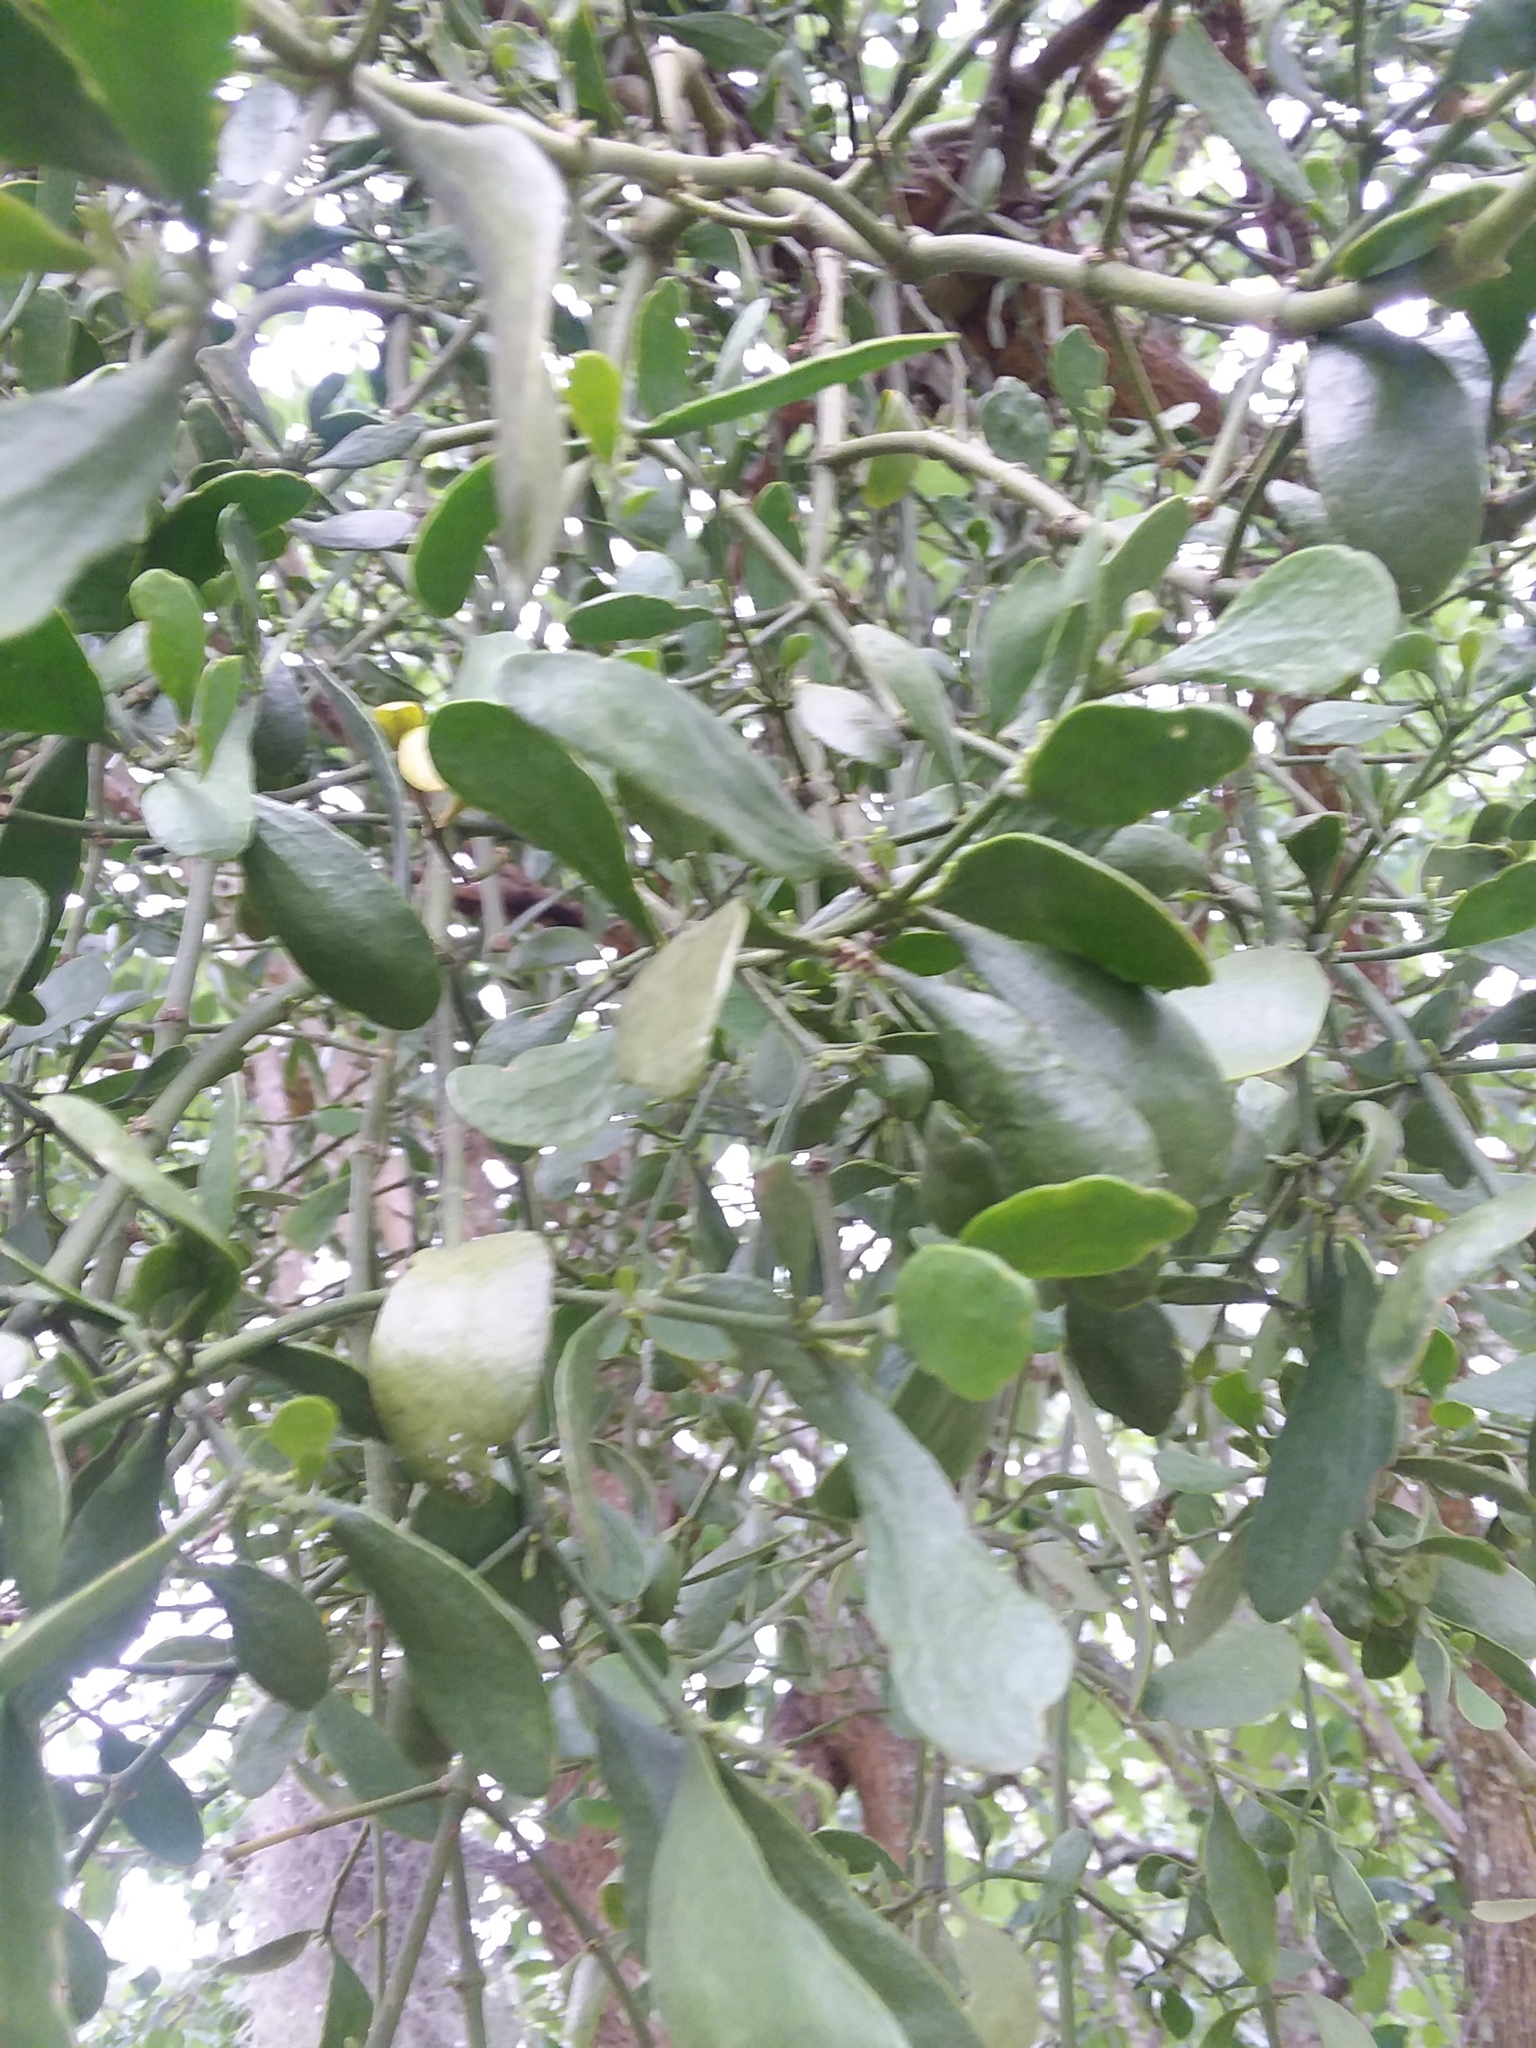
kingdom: Plantae
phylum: Tracheophyta
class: Magnoliopsida
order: Santalales
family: Viscaceae
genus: Phoradendron
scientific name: Phoradendron leucarpum
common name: Pacific mistletoe
